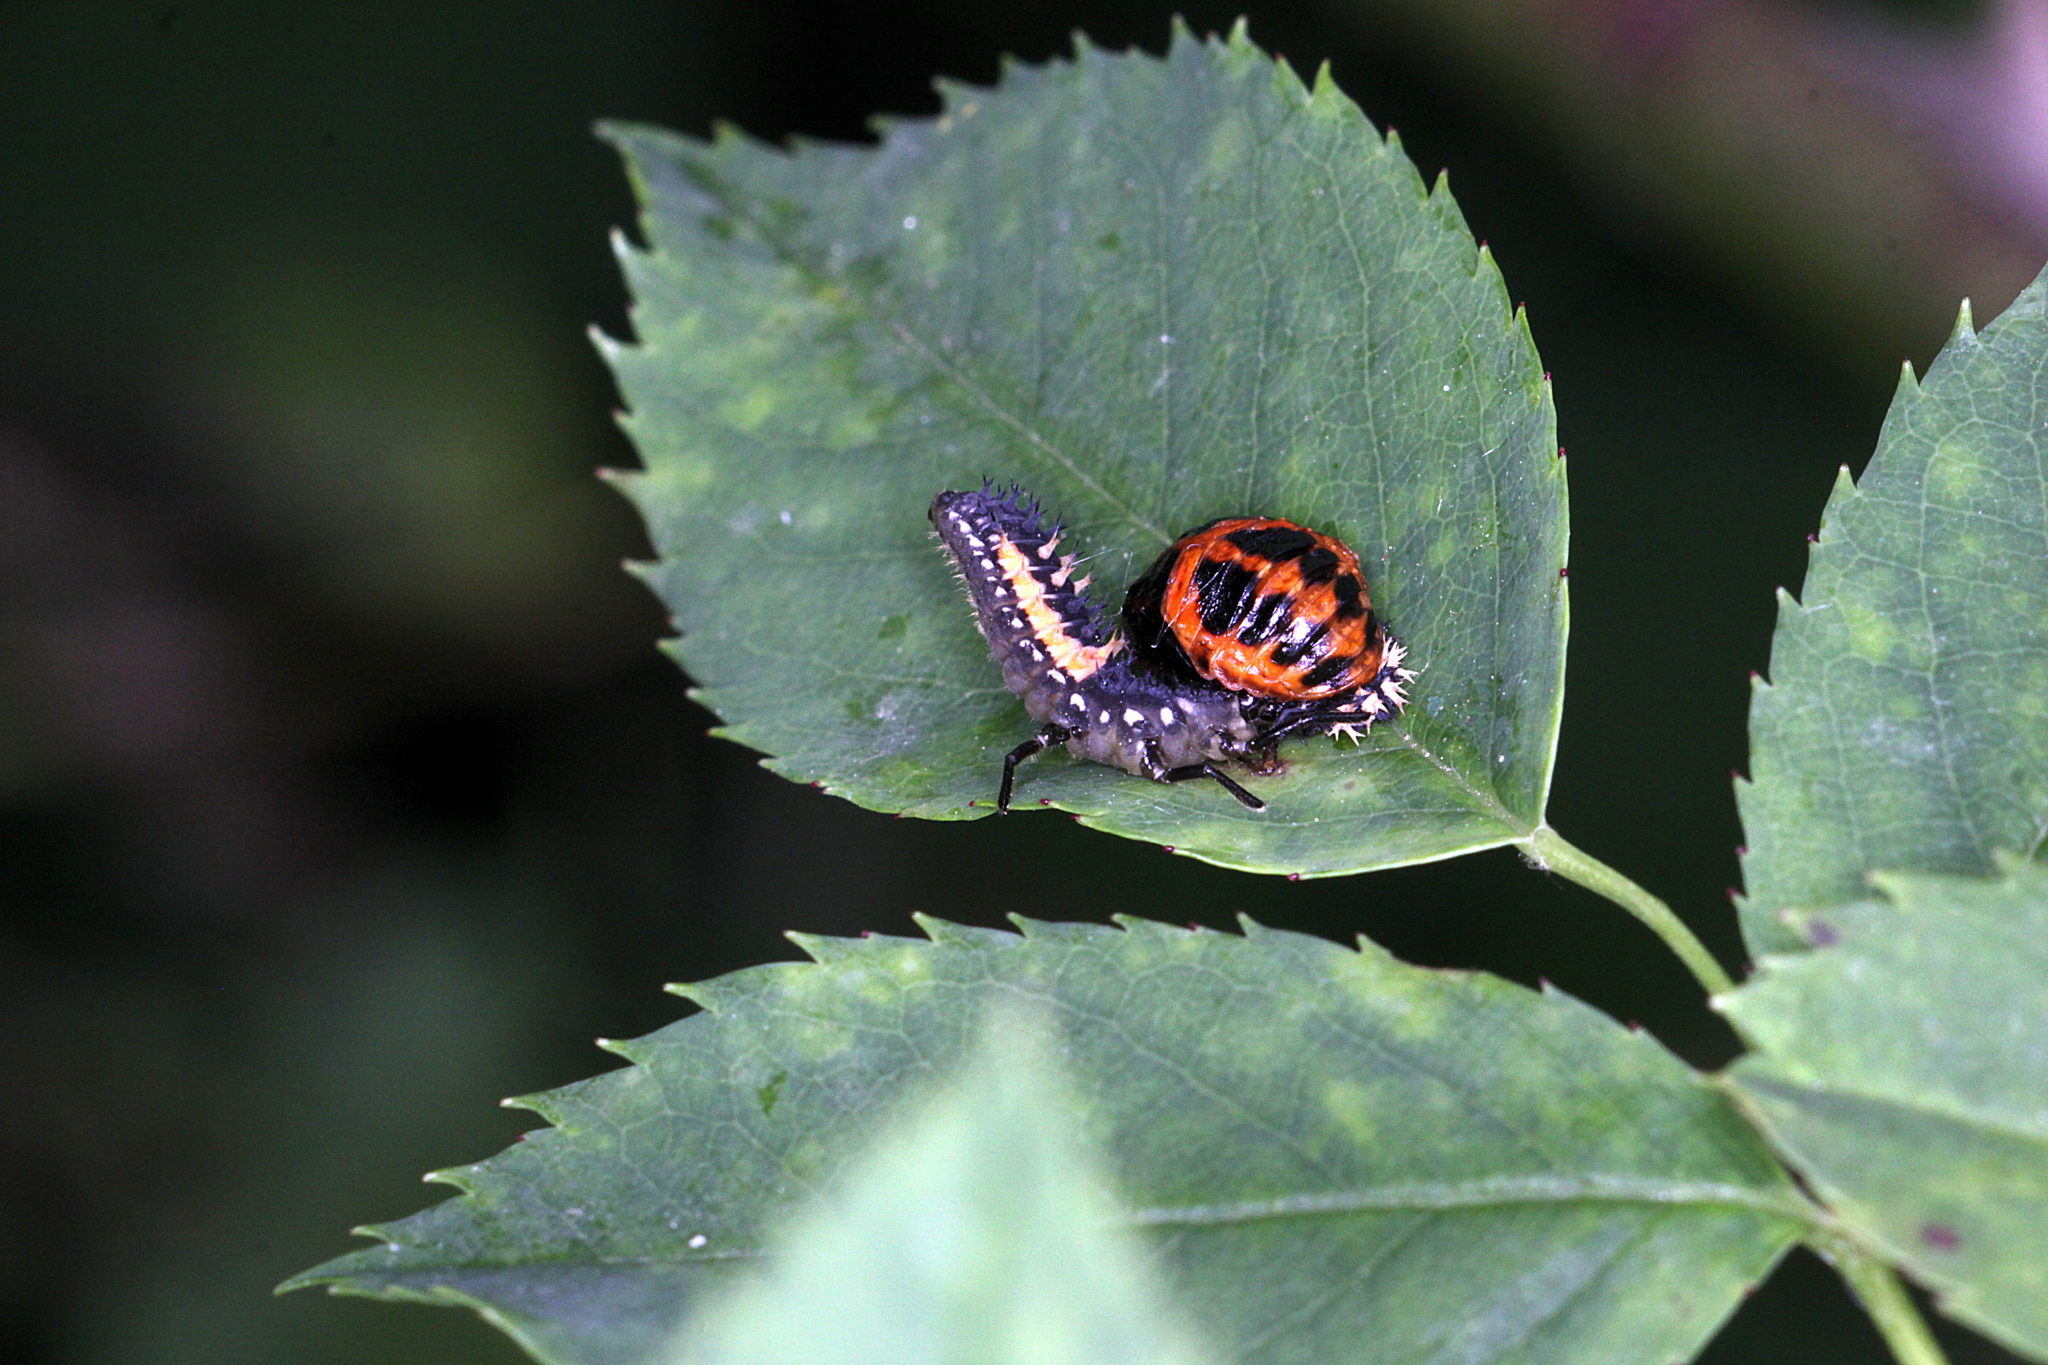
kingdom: Animalia
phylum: Arthropoda
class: Insecta
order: Coleoptera
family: Coccinellidae
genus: Harmonia
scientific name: Harmonia axyridis
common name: Harlequin ladybird
